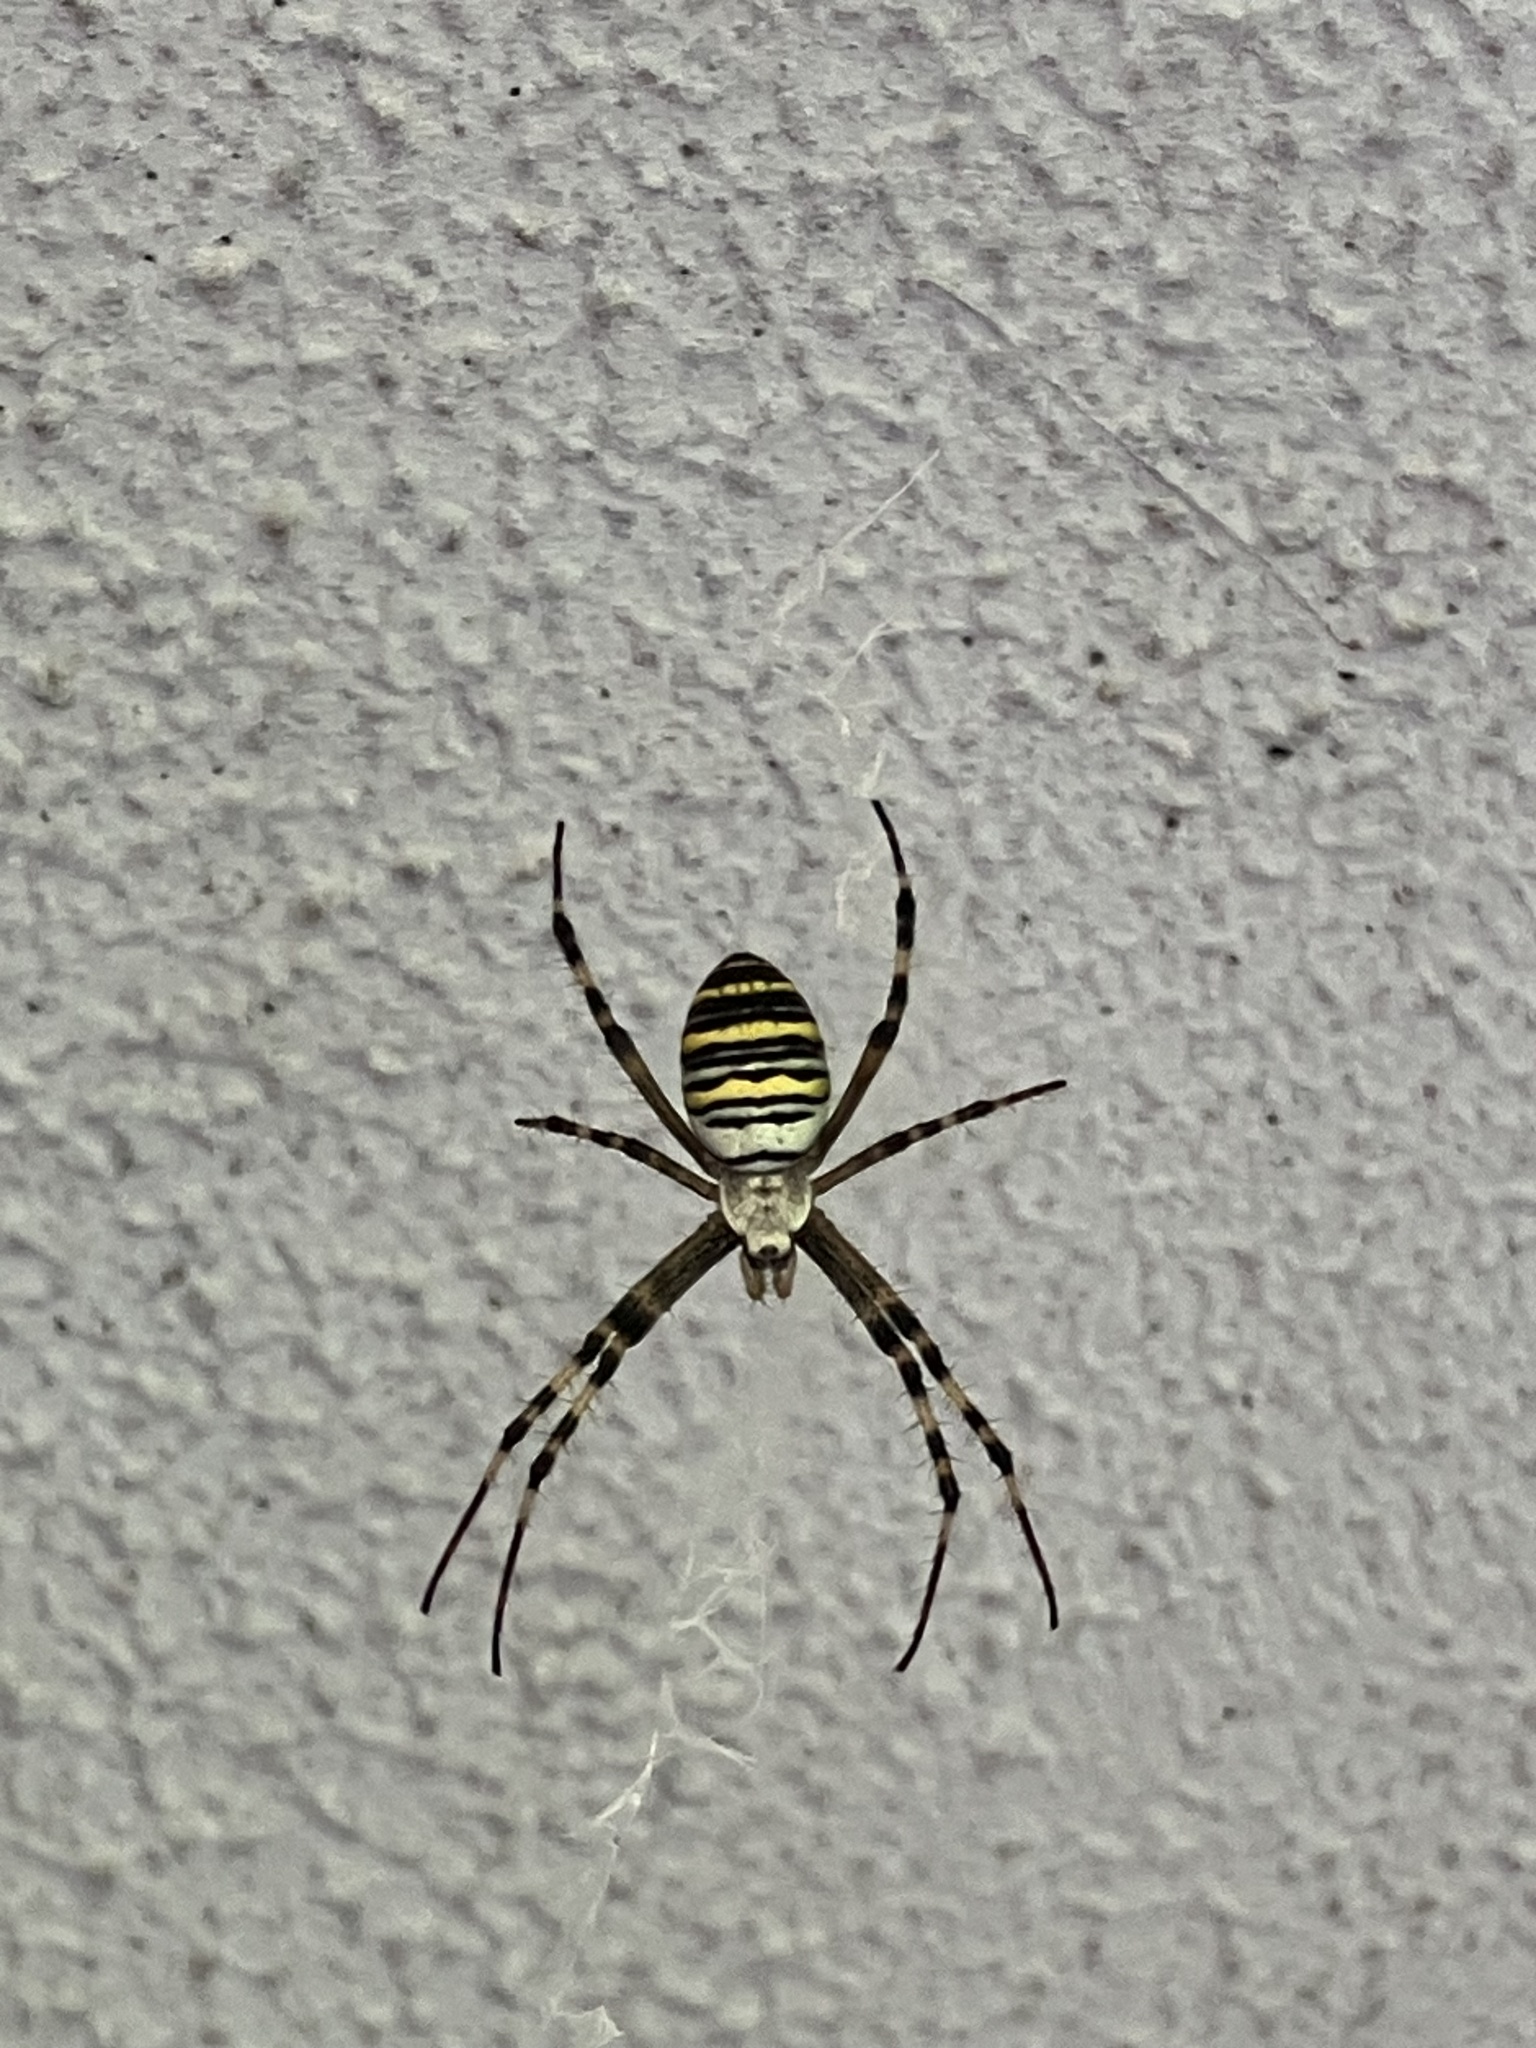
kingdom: Animalia
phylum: Arthropoda
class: Arachnida
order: Araneae
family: Araneidae
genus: Argiope
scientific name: Argiope bruennichi
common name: Wasp spider
